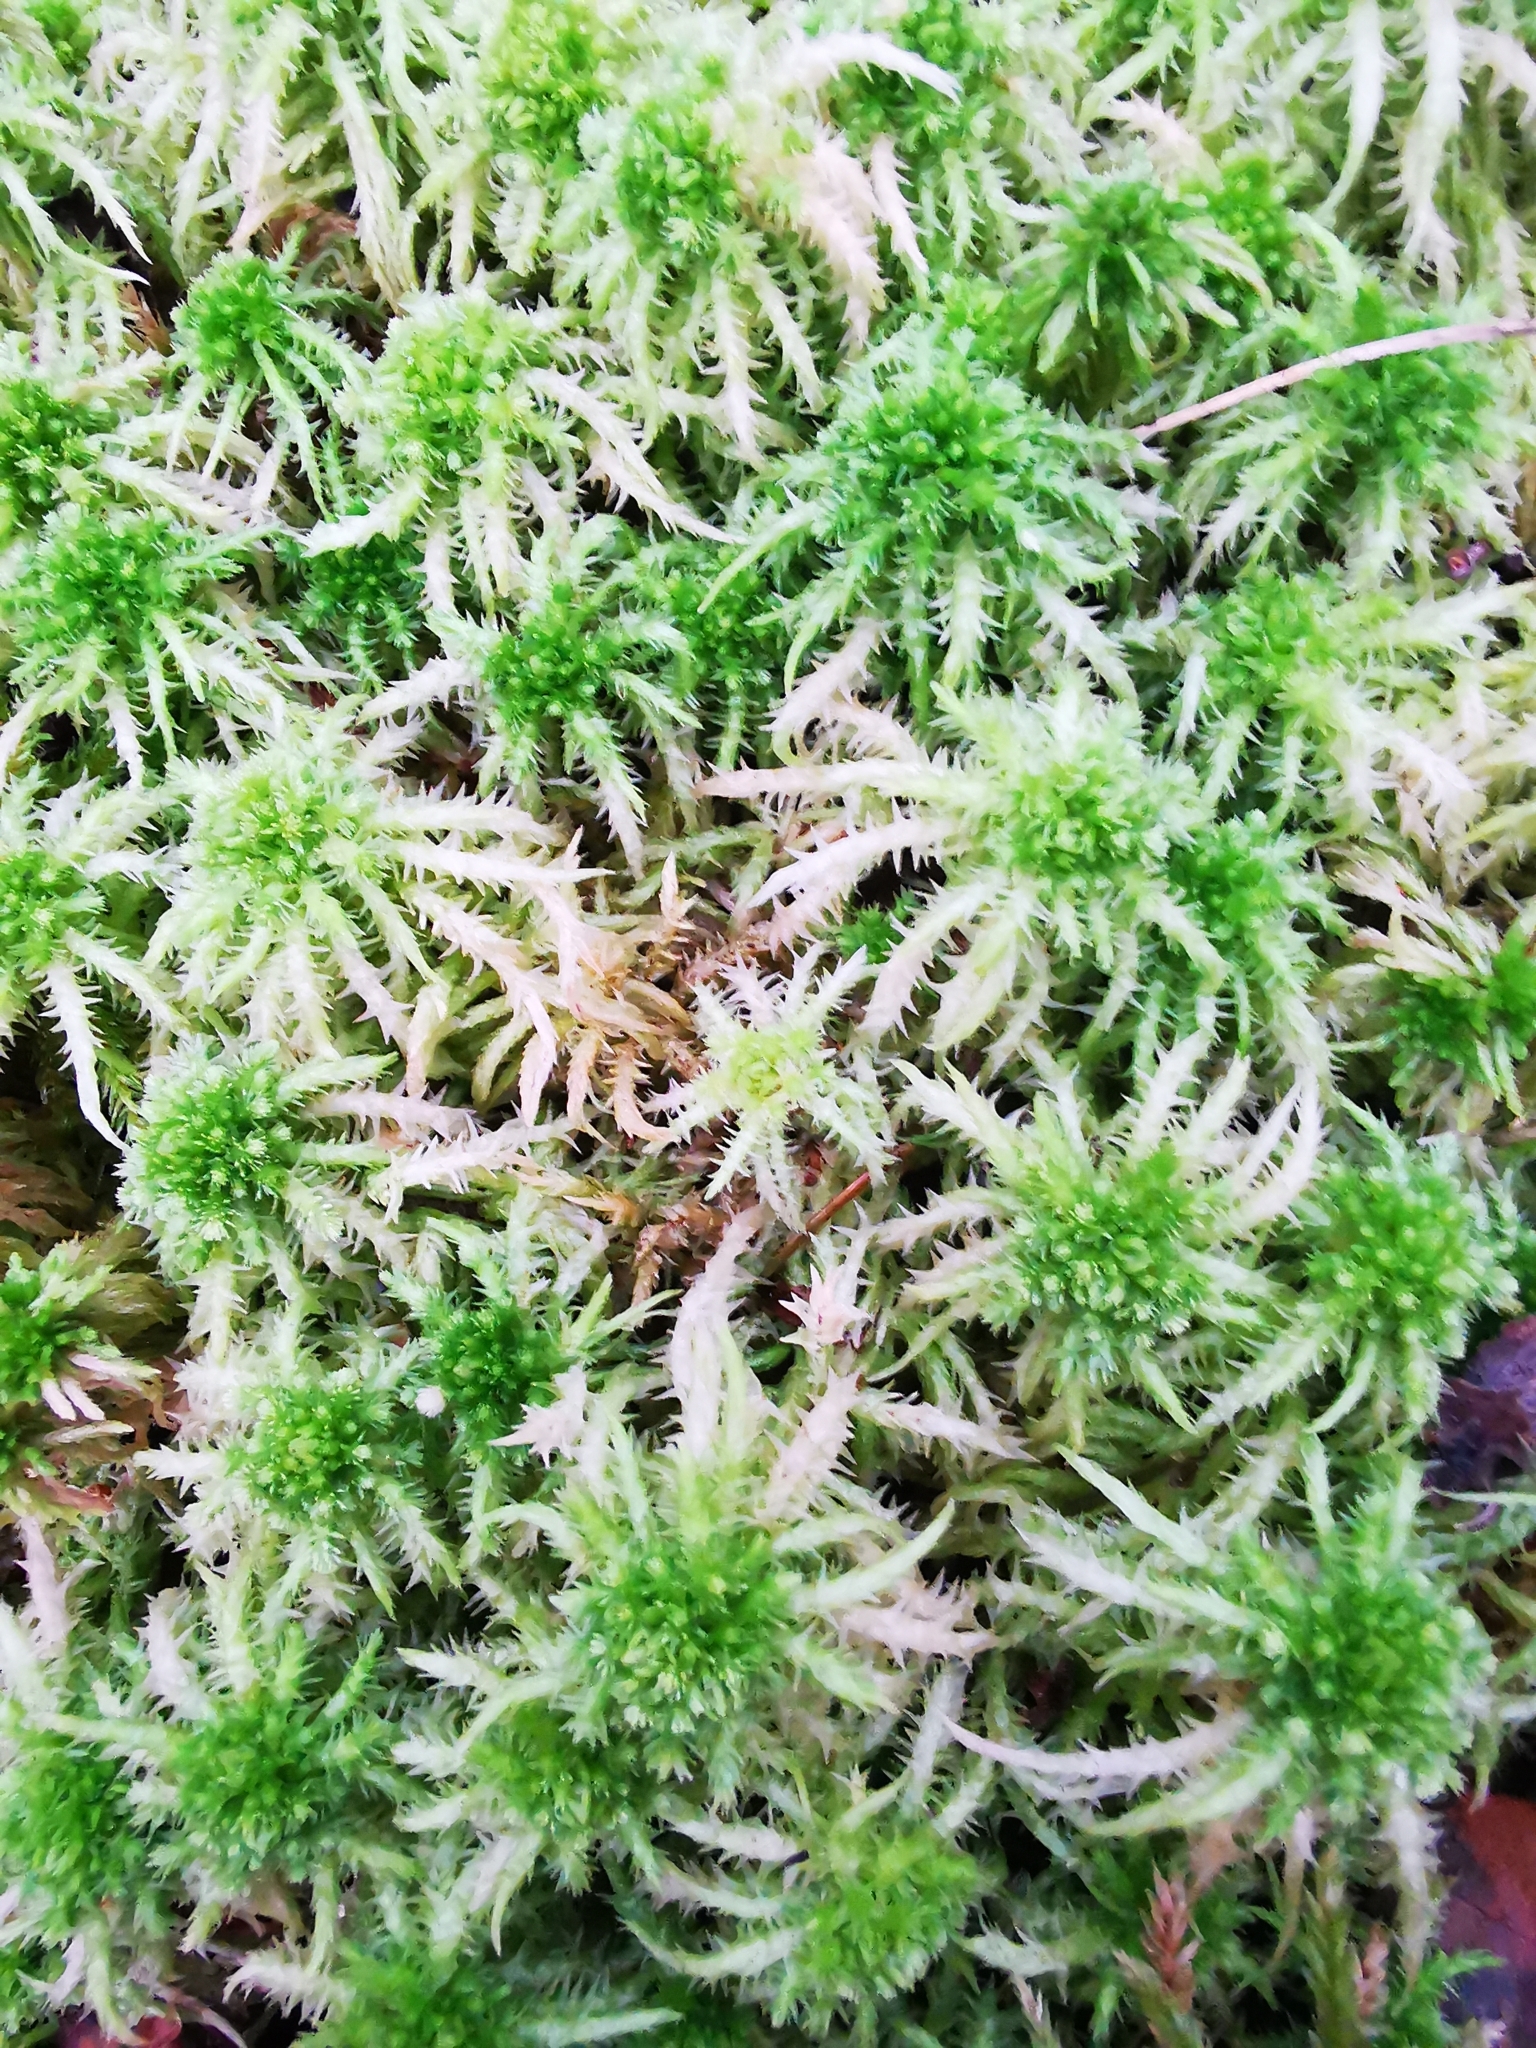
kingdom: Plantae
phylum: Bryophyta
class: Sphagnopsida
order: Sphagnales
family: Sphagnaceae
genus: Sphagnum
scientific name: Sphagnum squarrosum
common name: Shaggy peat moss
